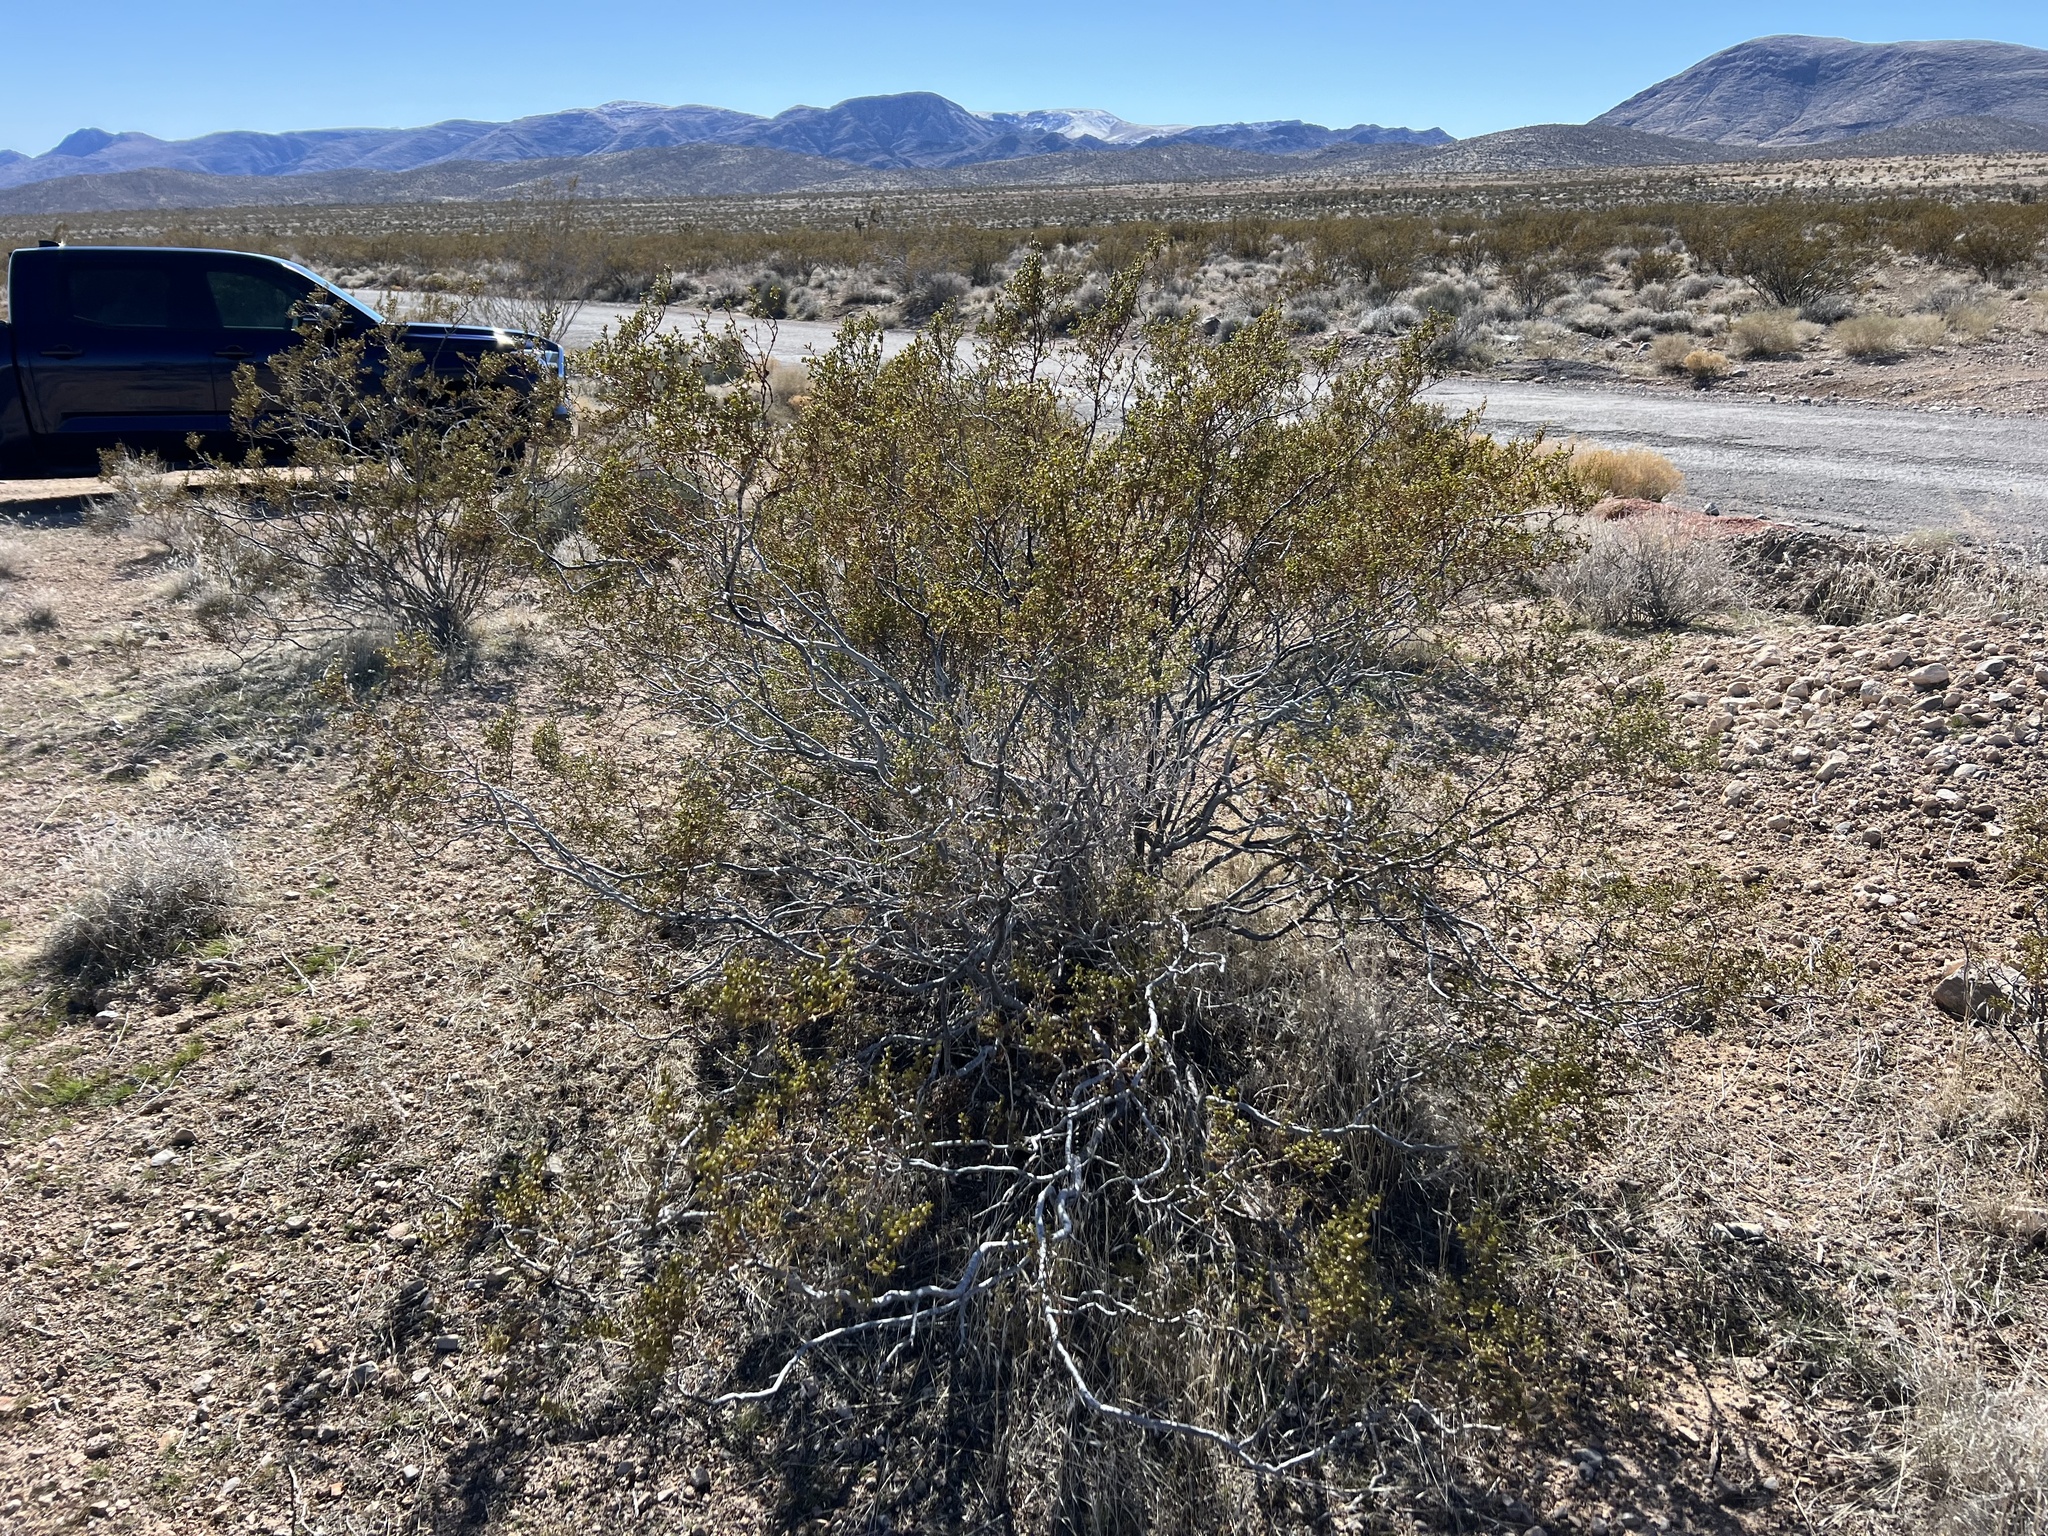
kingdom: Plantae
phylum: Tracheophyta
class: Magnoliopsida
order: Zygophyllales
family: Zygophyllaceae
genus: Larrea
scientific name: Larrea tridentata
